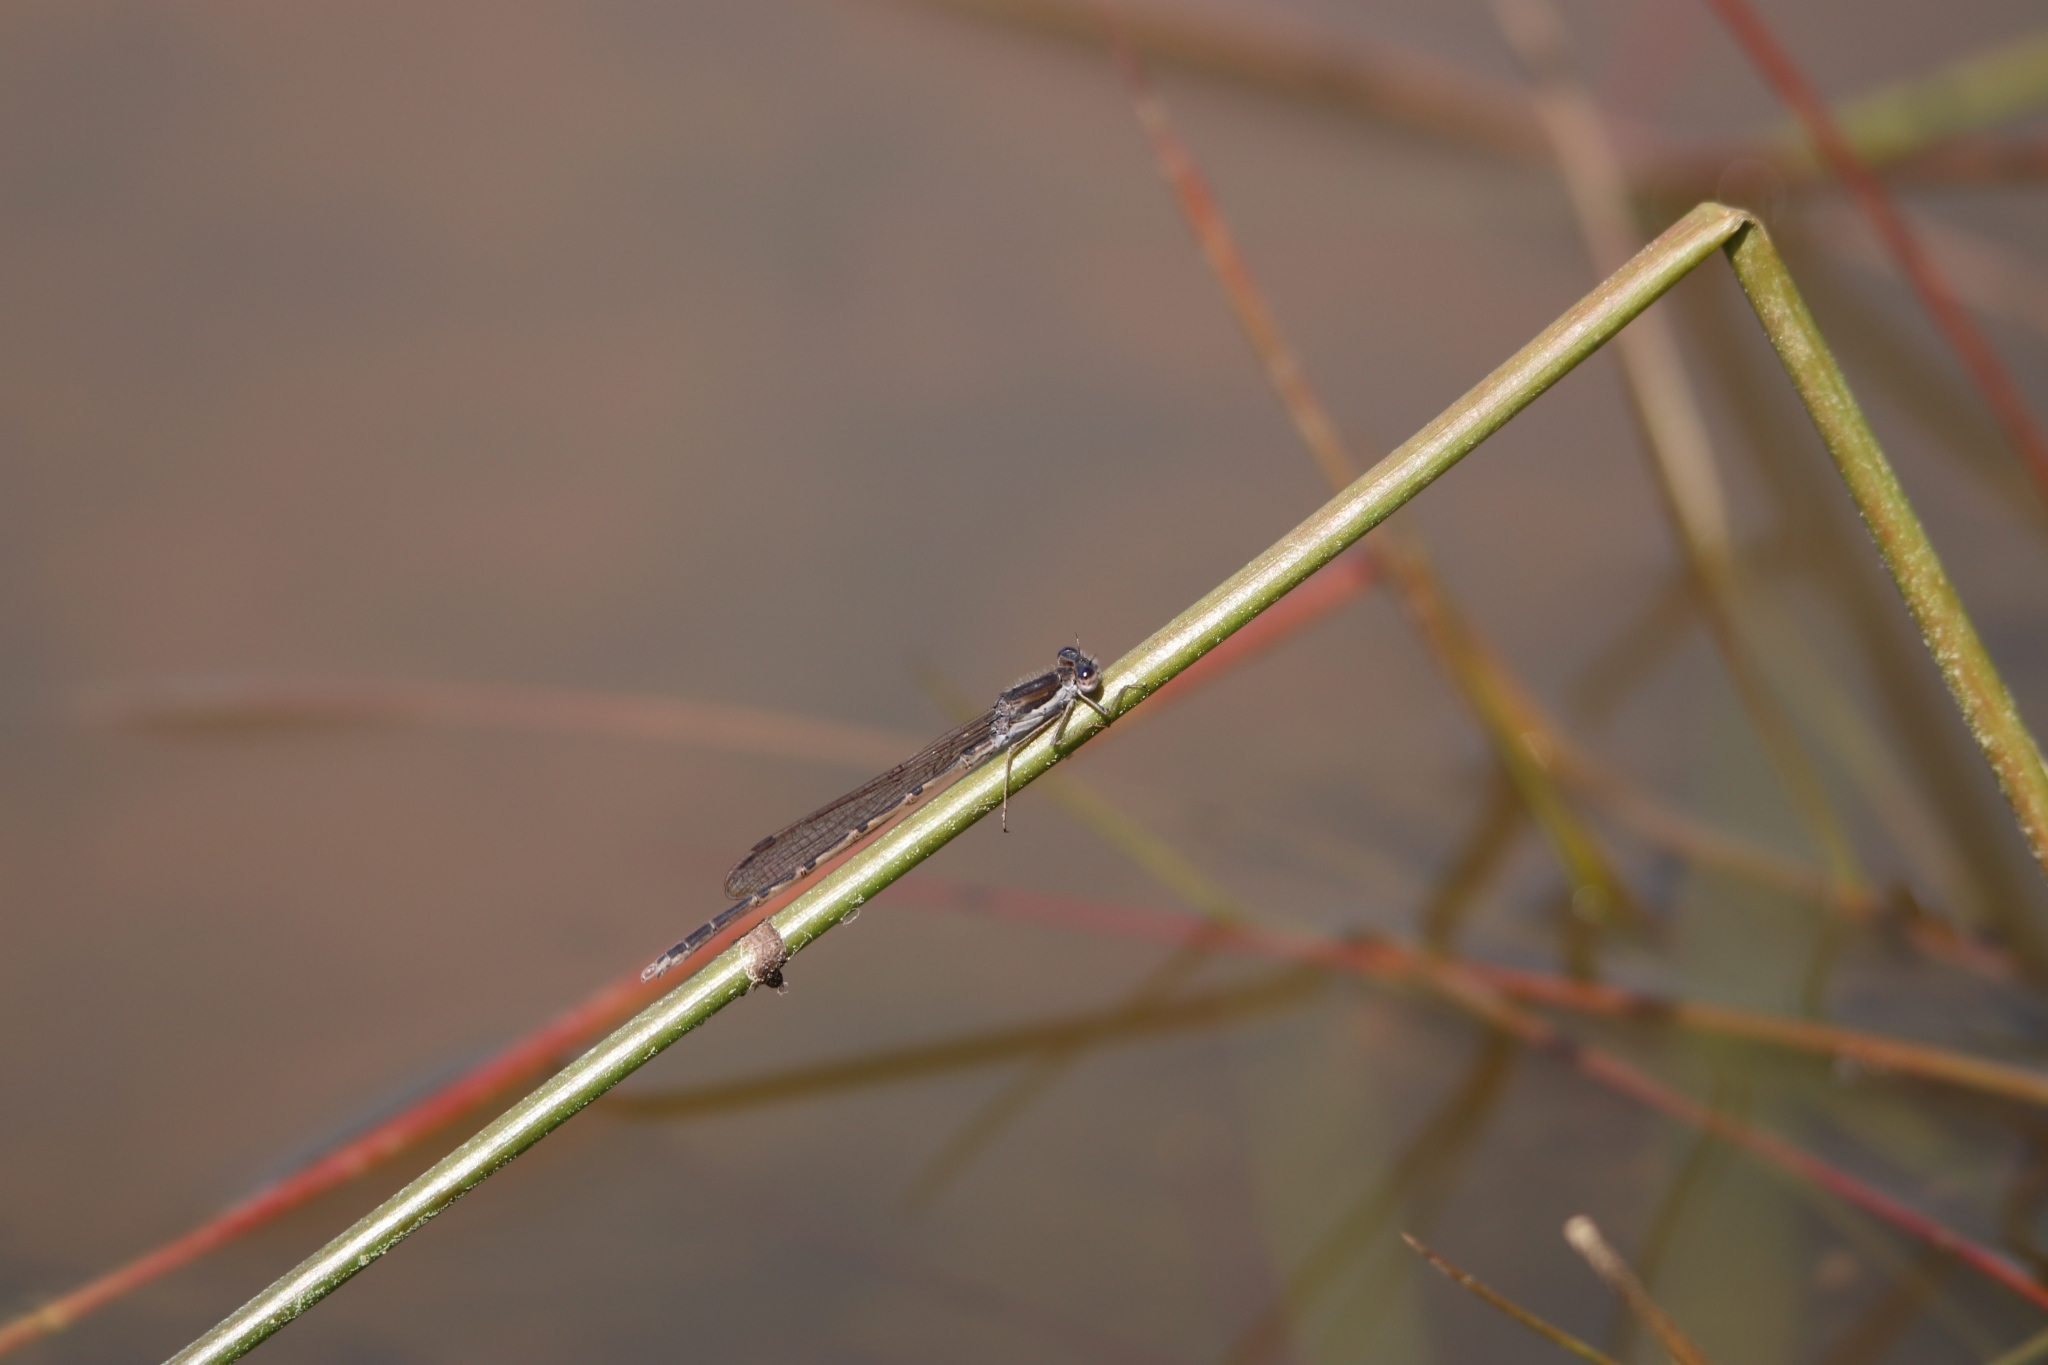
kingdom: Animalia
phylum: Arthropoda
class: Insecta
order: Odonata
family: Lestidae
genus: Sympecma
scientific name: Sympecma fusca
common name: Common winter damsel
